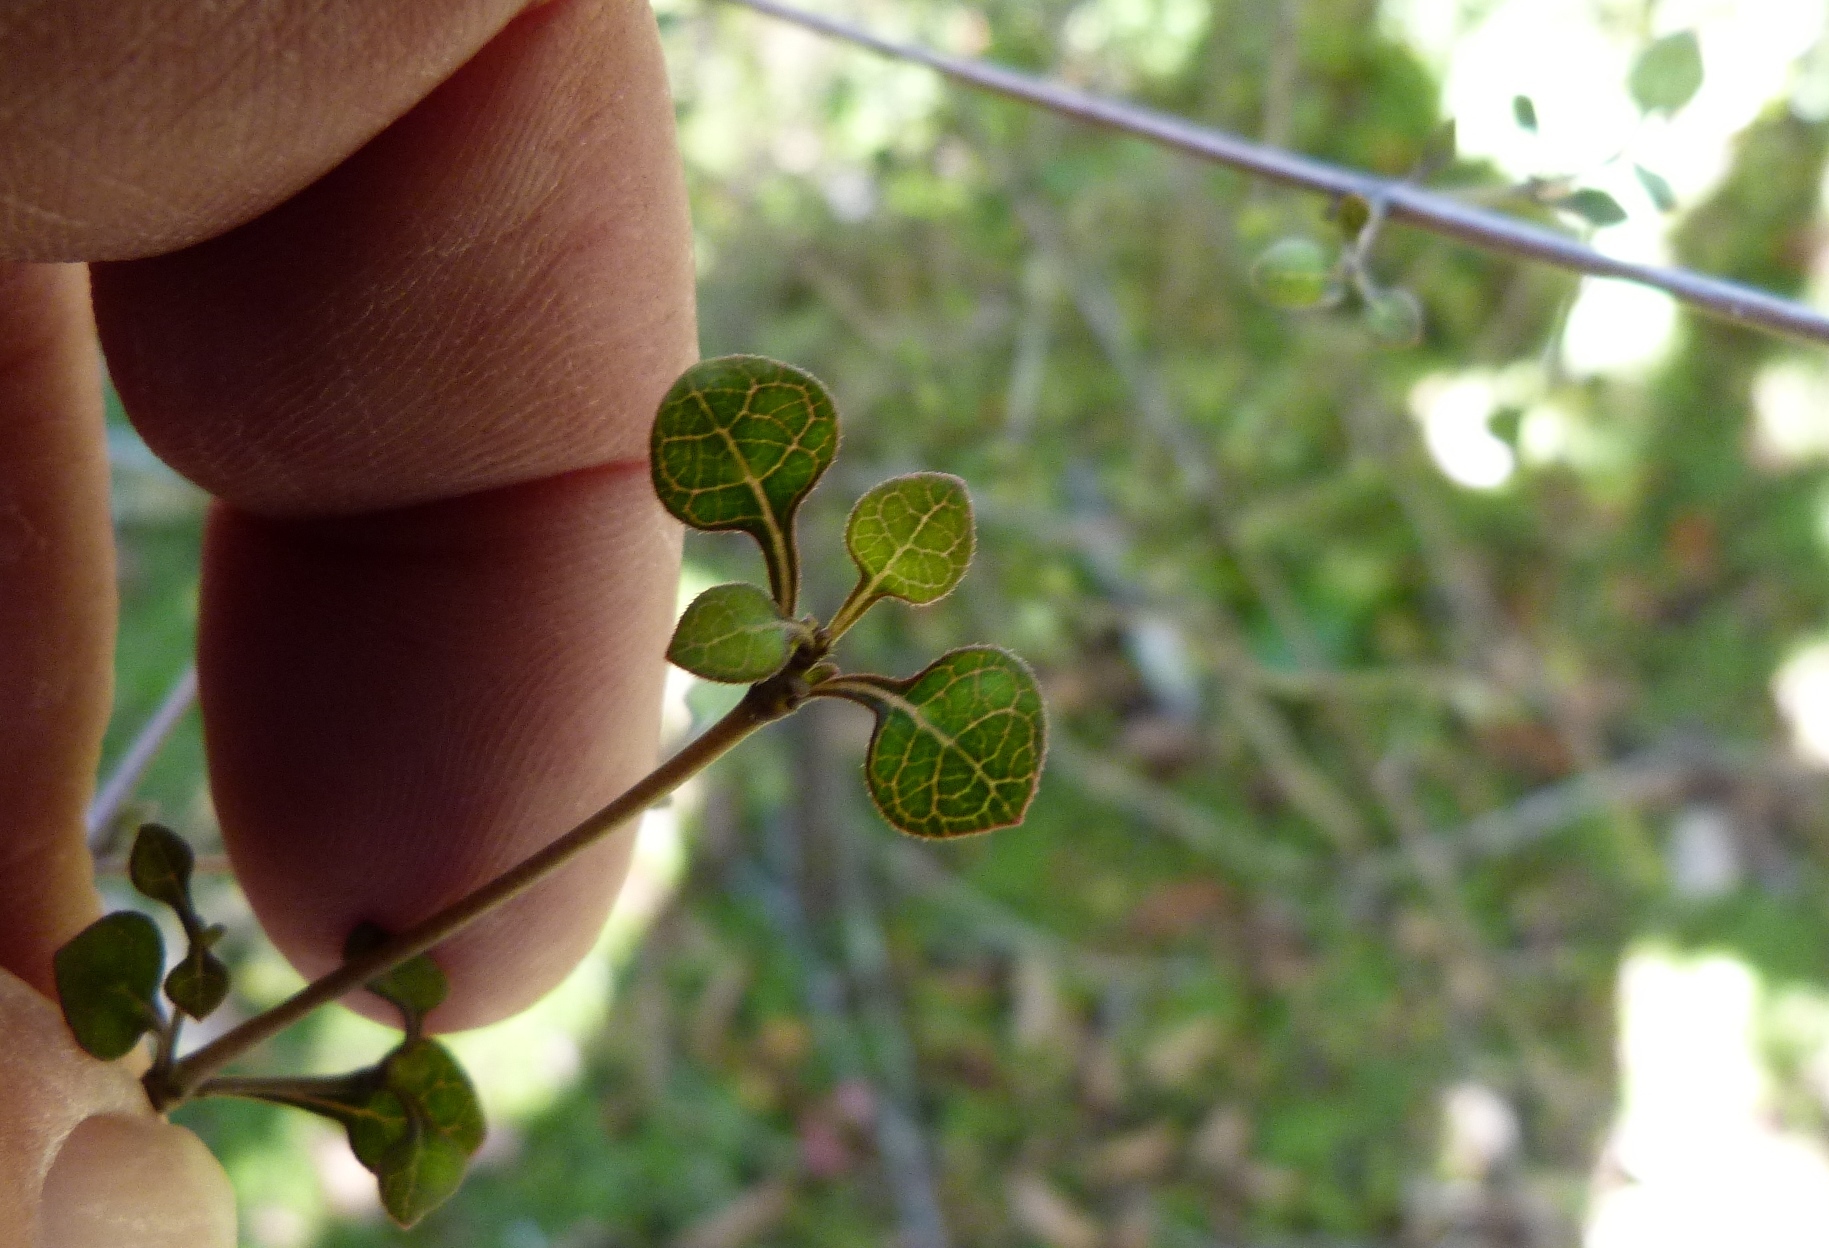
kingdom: Plantae
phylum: Tracheophyta
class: Magnoliopsida
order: Gentianales
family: Rubiaceae
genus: Coprosma
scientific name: Coprosma tenuicaulis
